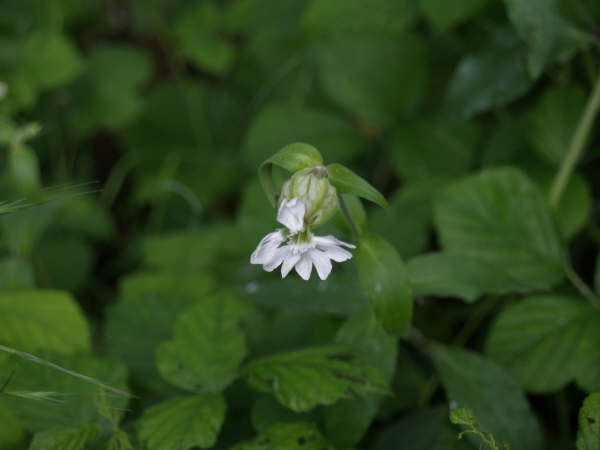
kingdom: Plantae
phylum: Tracheophyta
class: Magnoliopsida
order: Caryophyllales
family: Caryophyllaceae
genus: Silene
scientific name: Silene latifolia
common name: White campion
